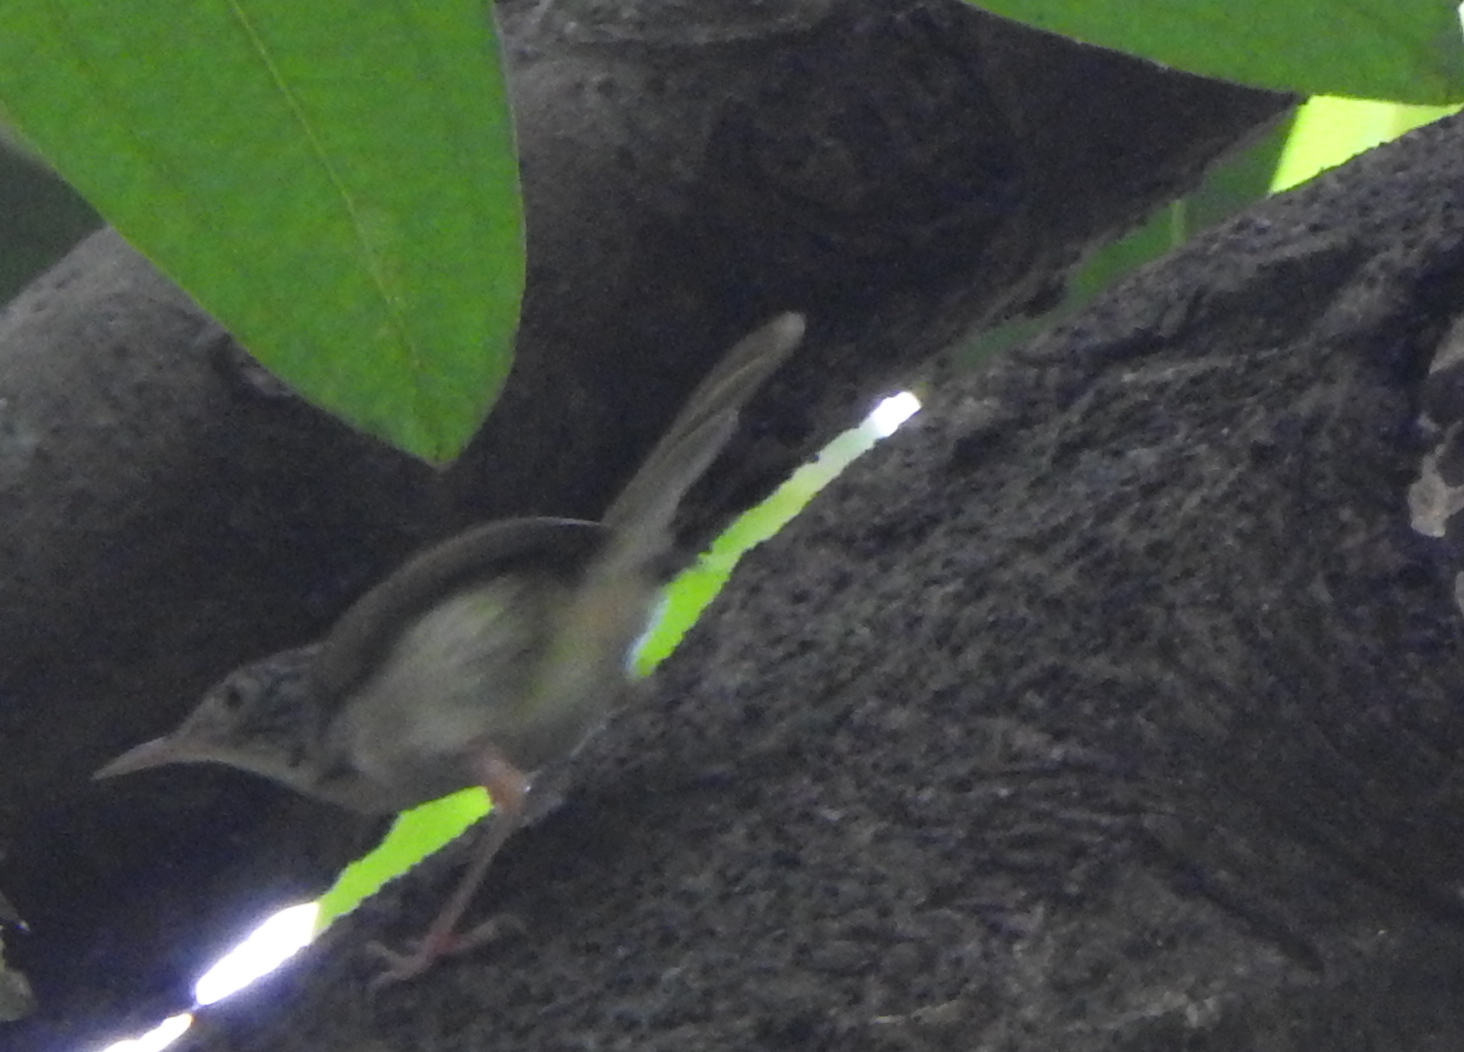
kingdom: Animalia
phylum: Chordata
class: Aves
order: Passeriformes
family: Cisticolidae
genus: Orthotomus
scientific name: Orthotomus sutorius
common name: Common tailorbird
